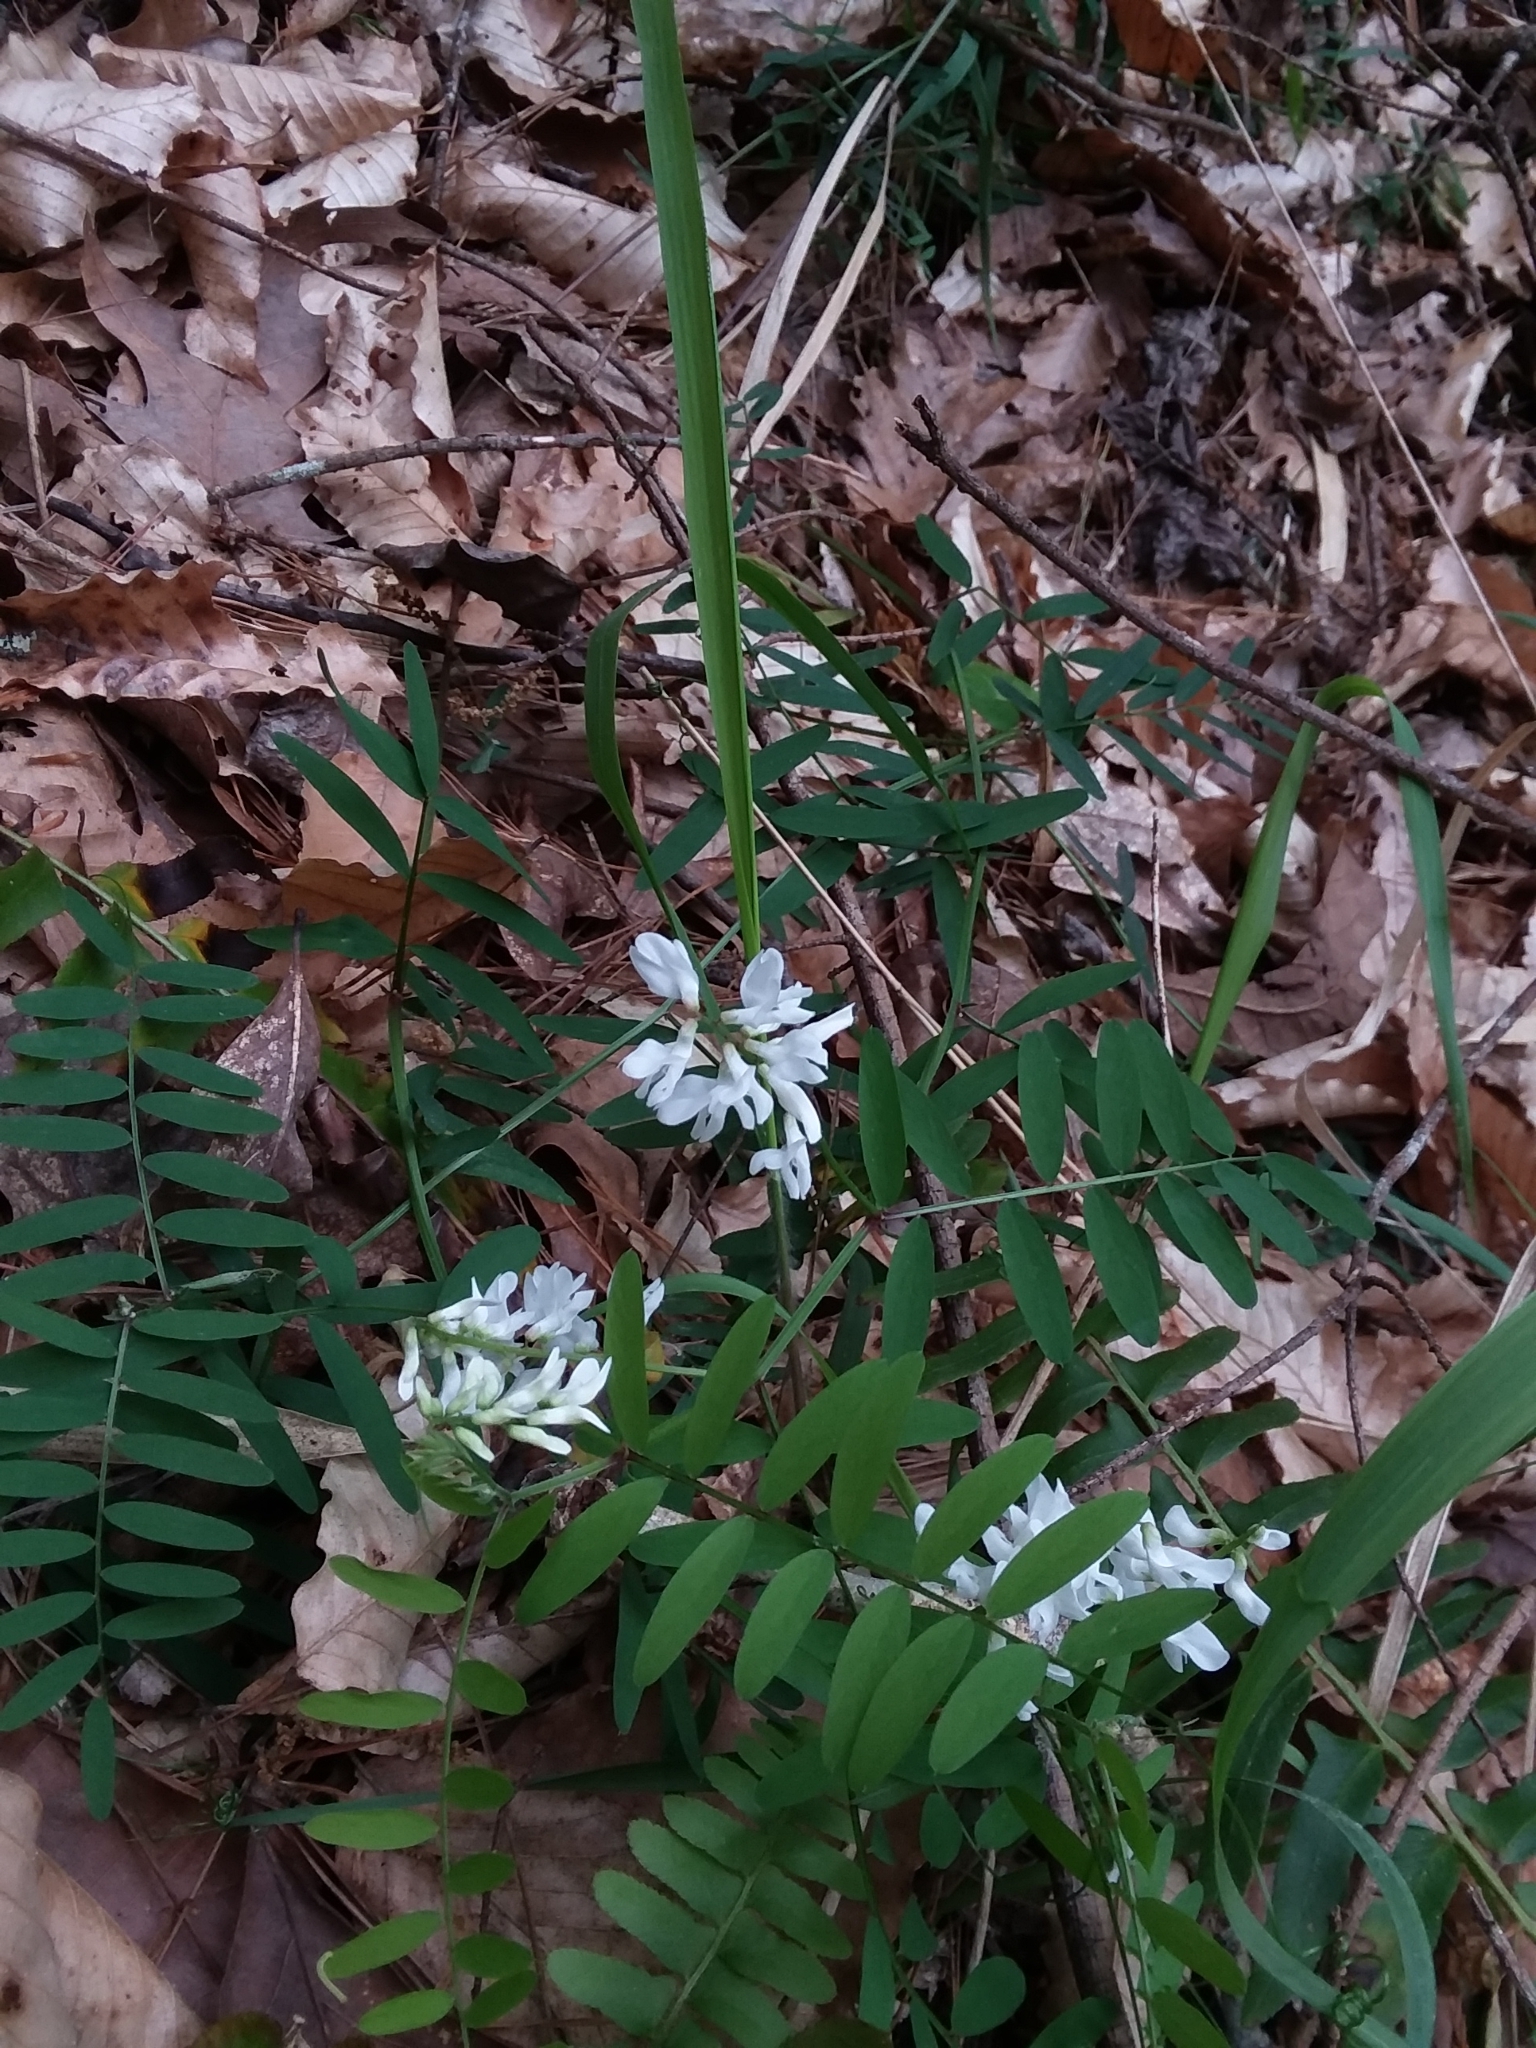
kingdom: Plantae
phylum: Tracheophyta
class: Magnoliopsida
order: Fabales
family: Fabaceae
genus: Vicia
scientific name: Vicia caroliniana
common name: Carolina vetch
